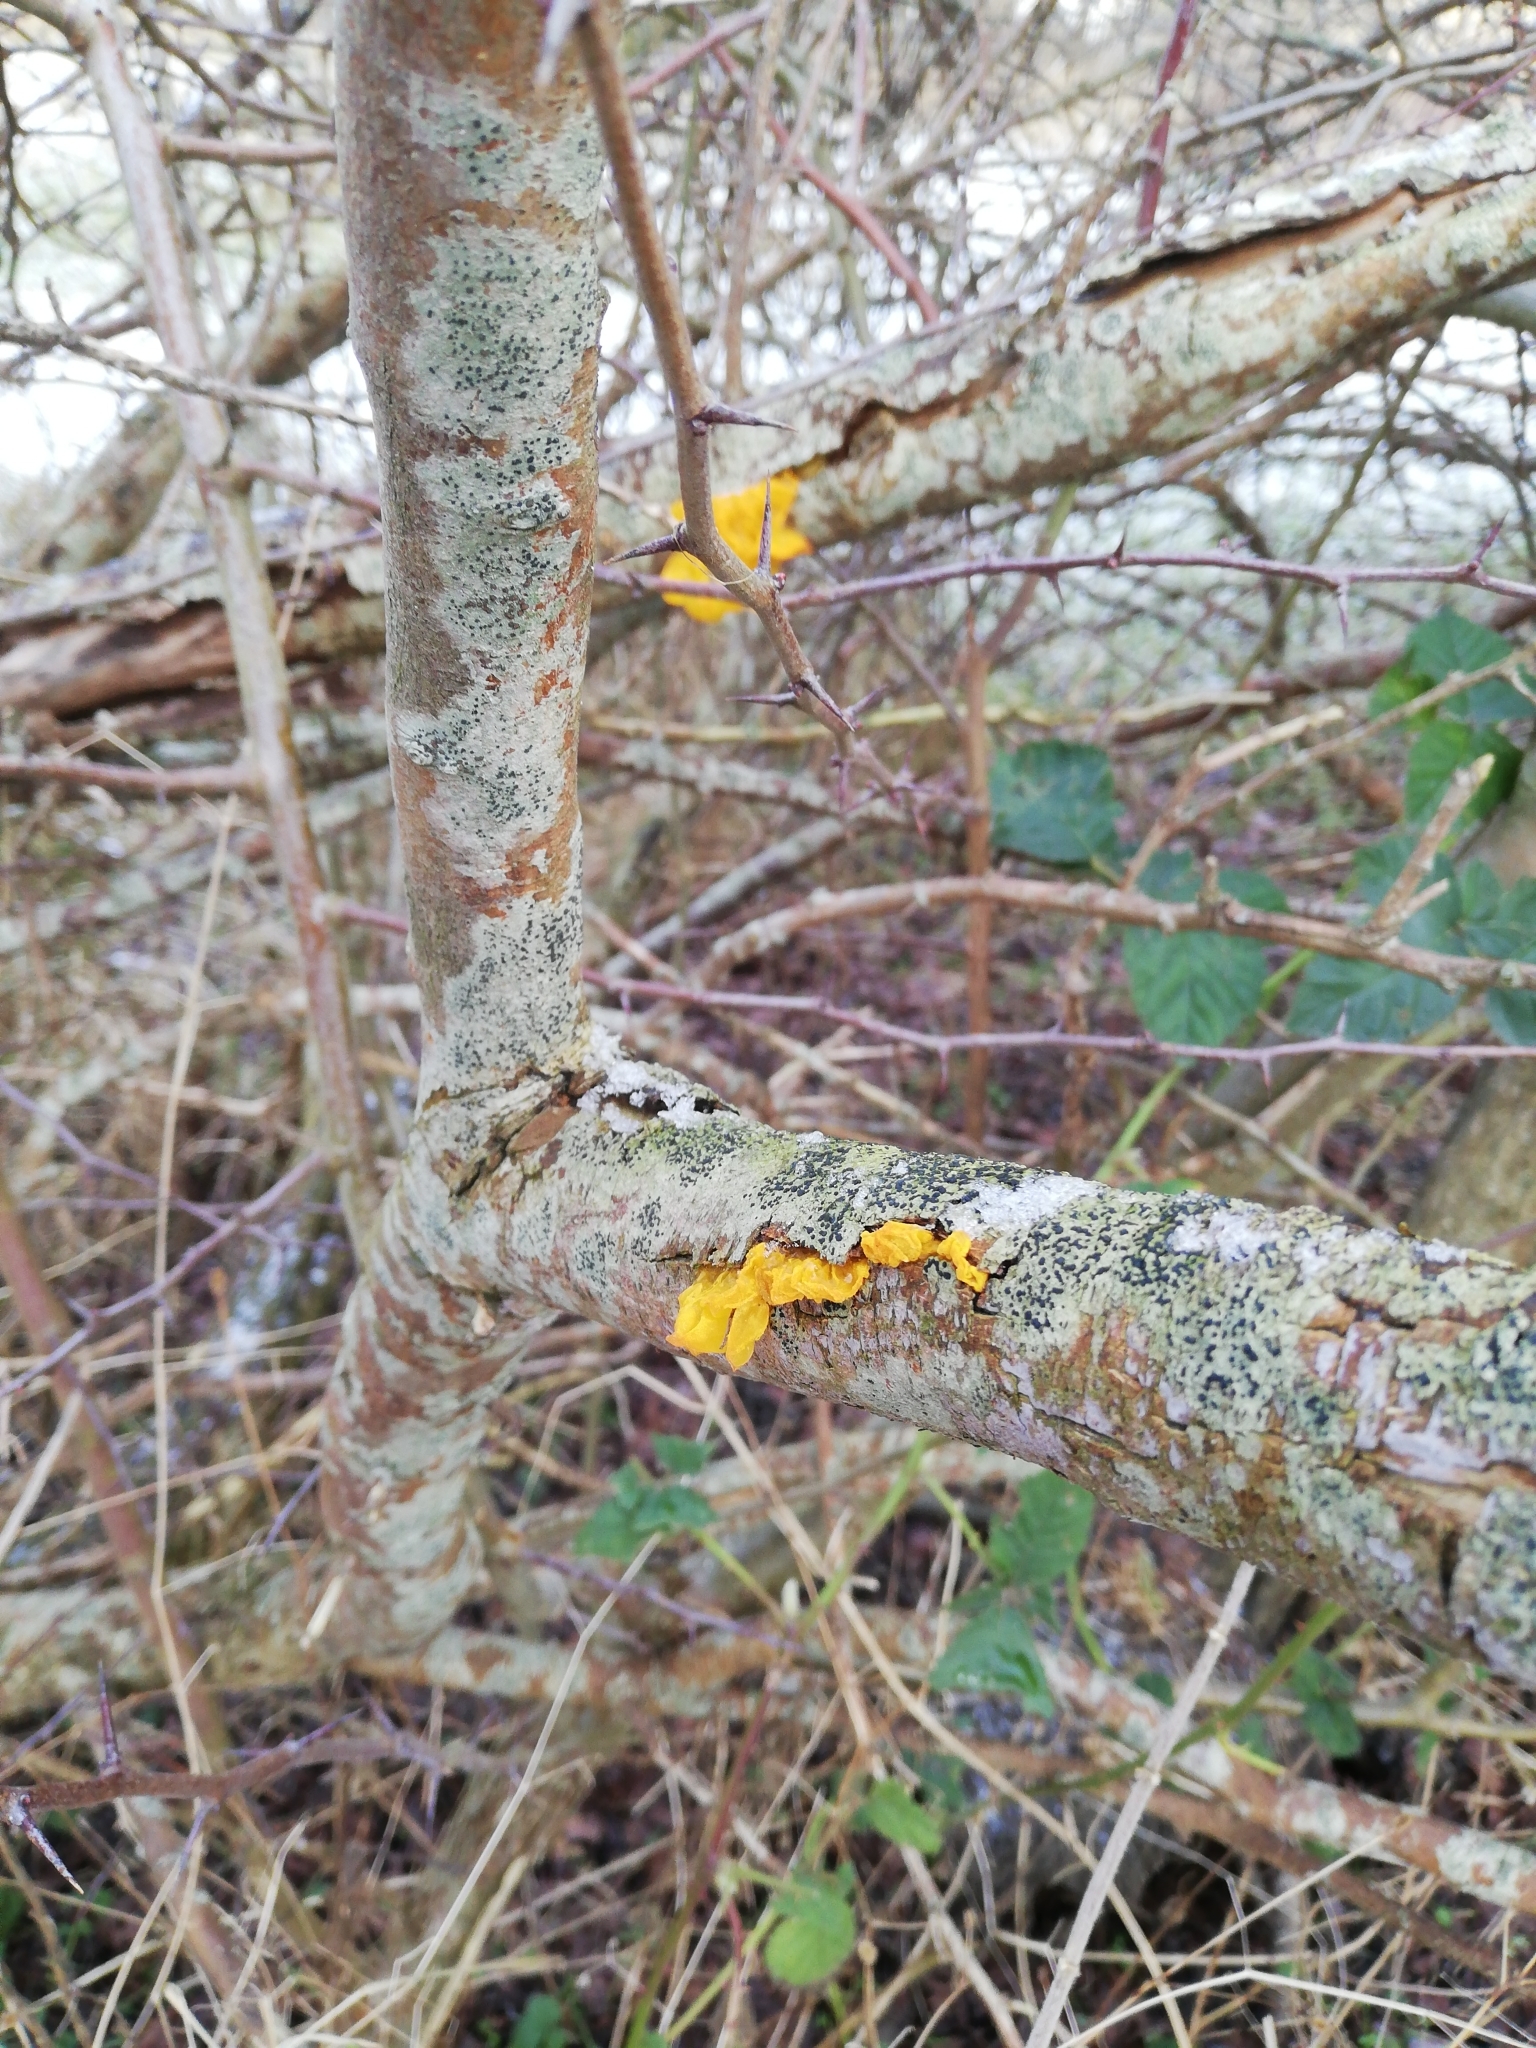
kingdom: Fungi
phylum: Basidiomycota
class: Tremellomycetes
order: Tremellales
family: Tremellaceae
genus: Tremella
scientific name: Tremella mesenterica
